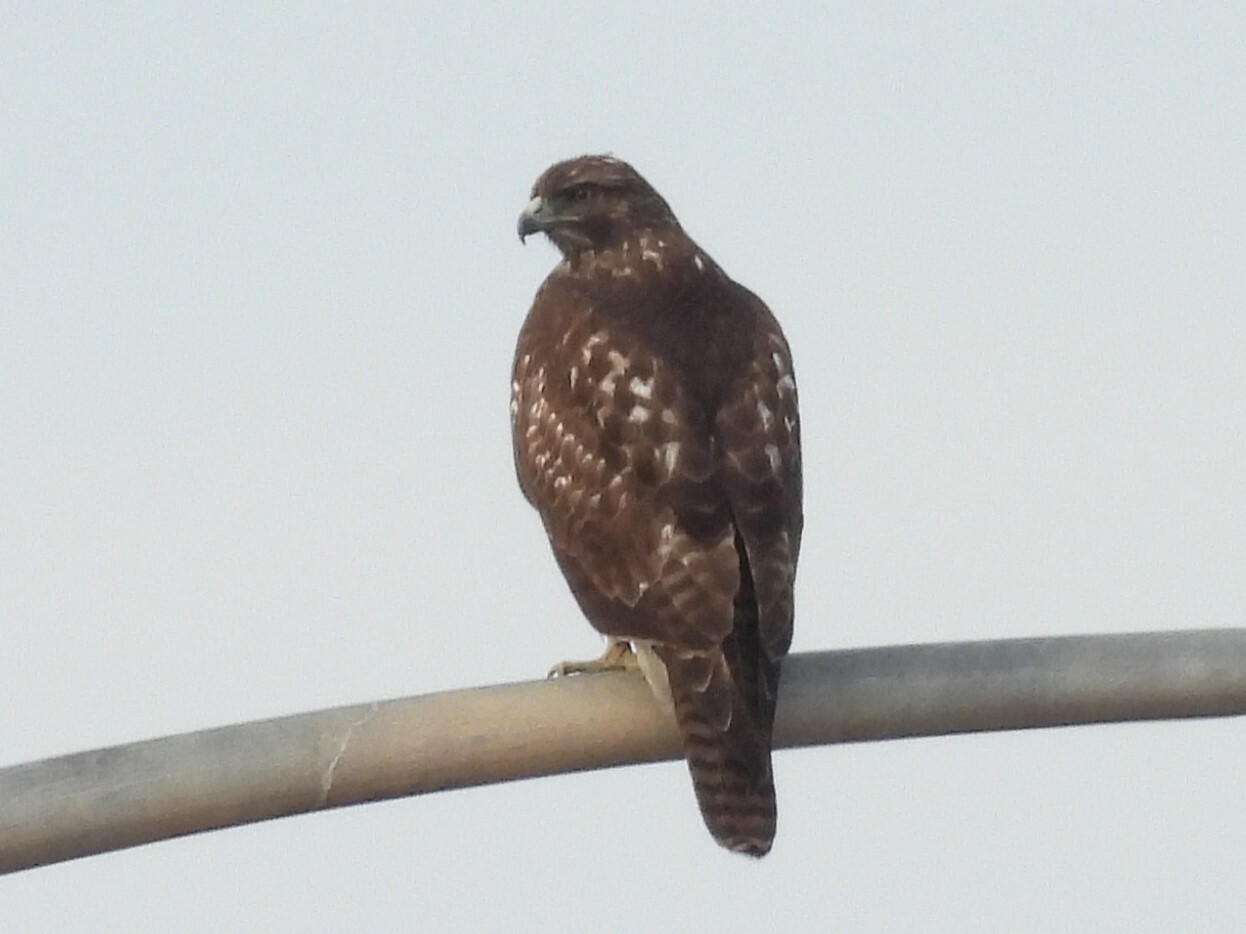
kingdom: Animalia
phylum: Chordata
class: Aves
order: Accipitriformes
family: Accipitridae
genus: Buteo
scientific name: Buteo jamaicensis
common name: Red-tailed hawk
